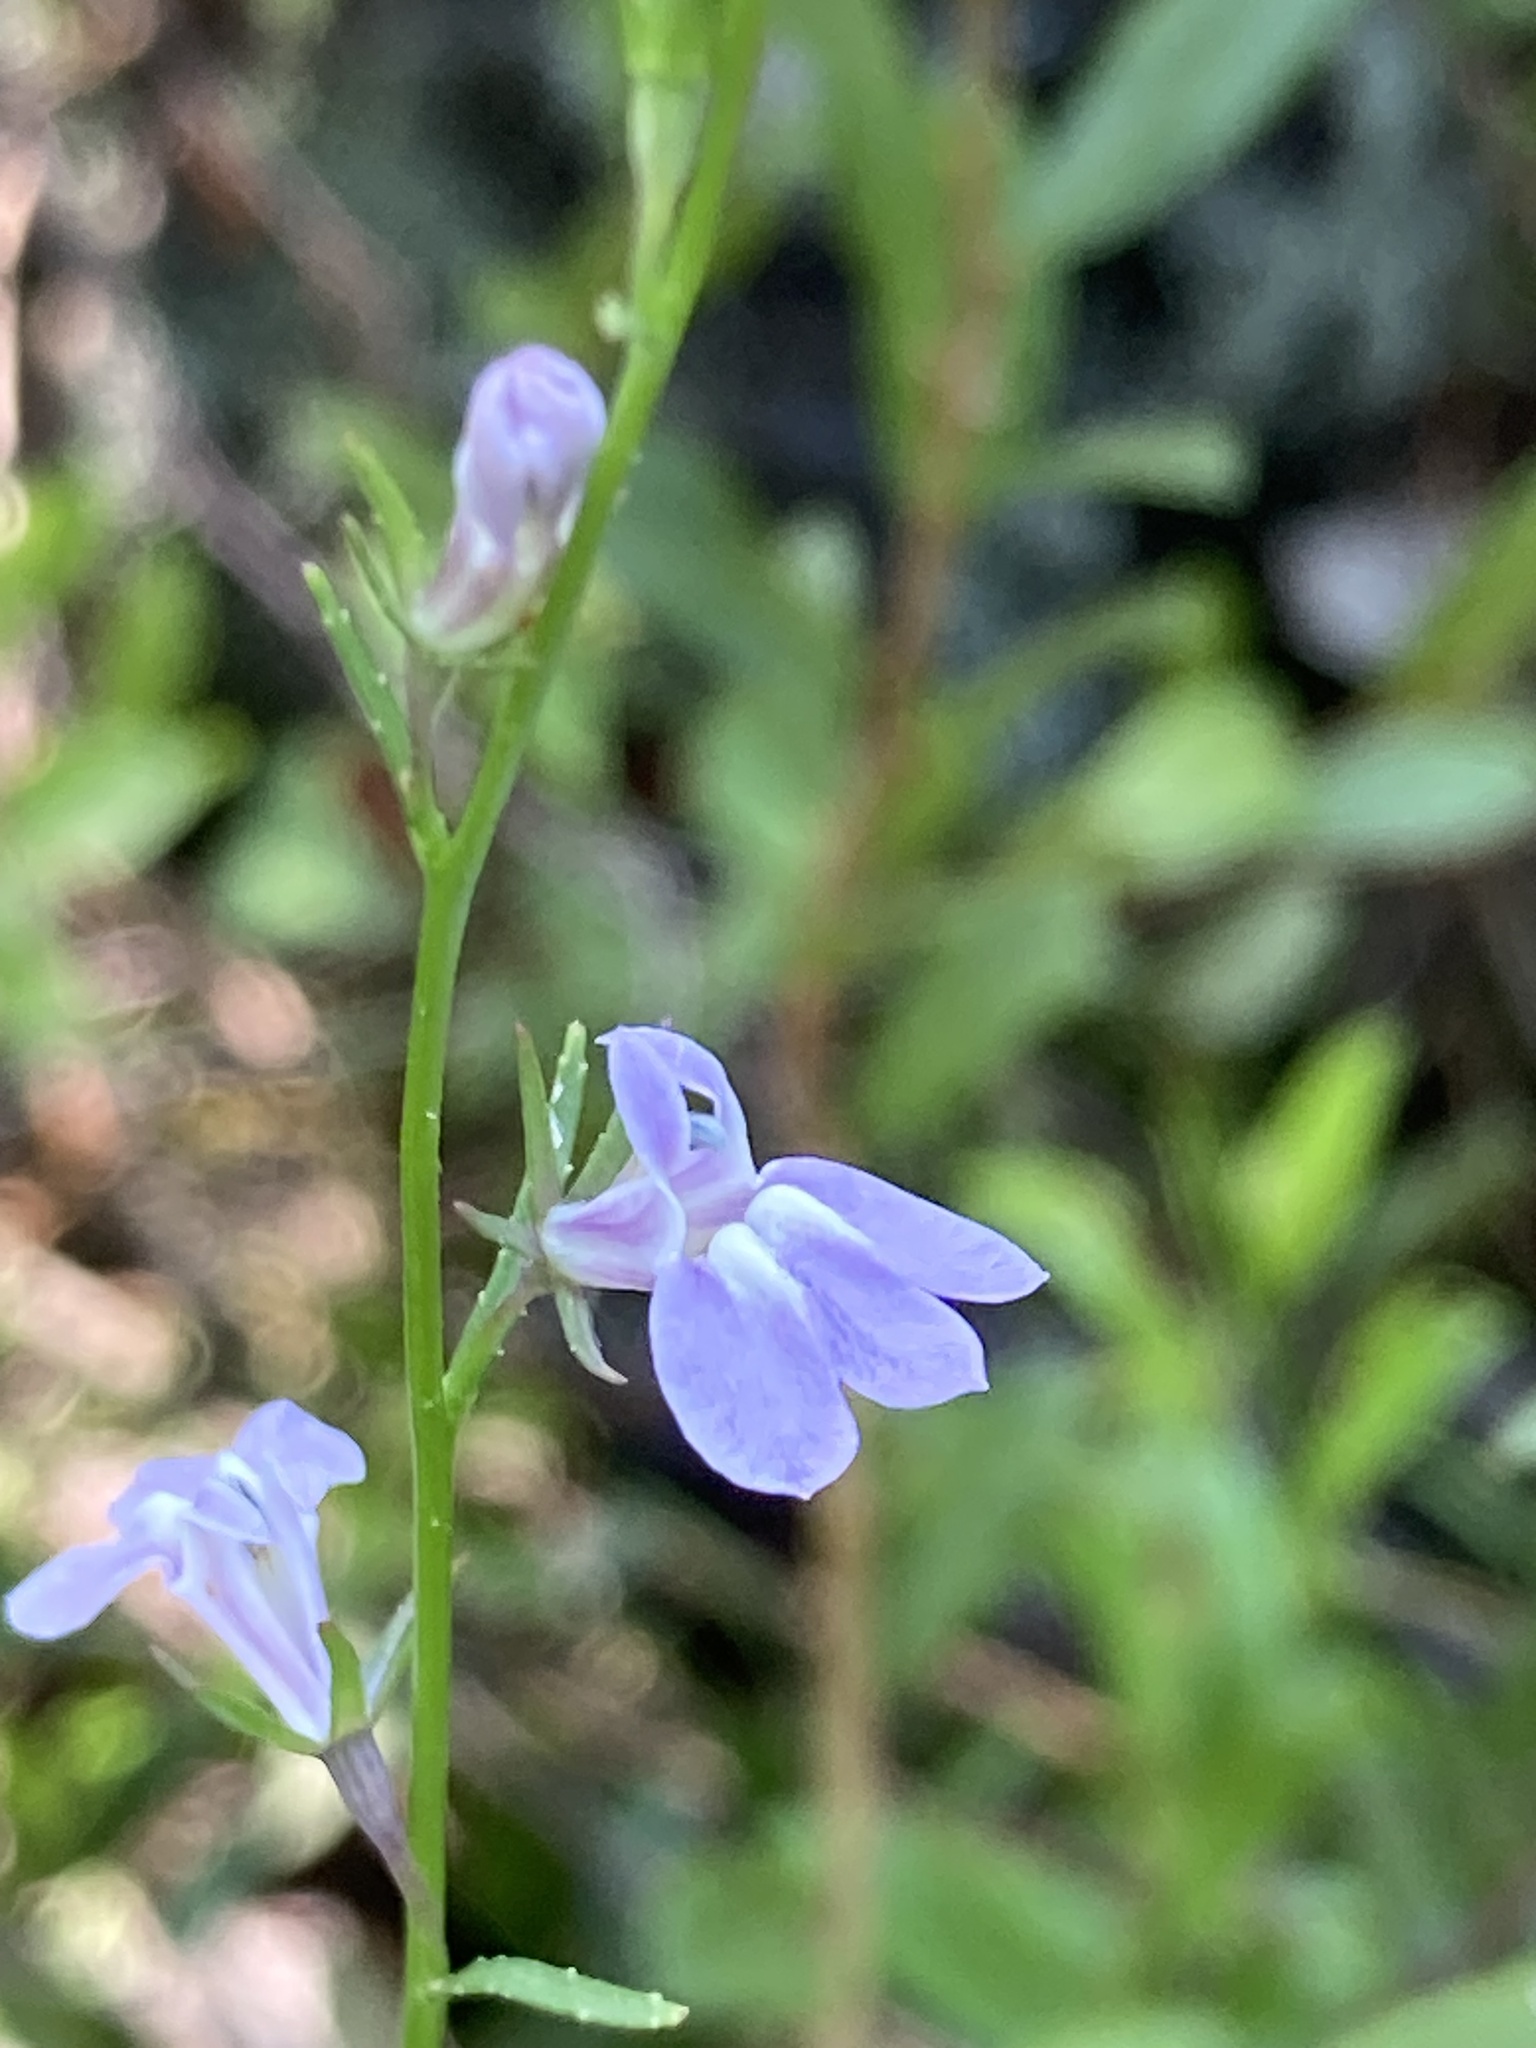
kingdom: Plantae
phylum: Tracheophyta
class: Magnoliopsida
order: Asterales
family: Campanulaceae
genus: Lobelia
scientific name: Lobelia canbyi
